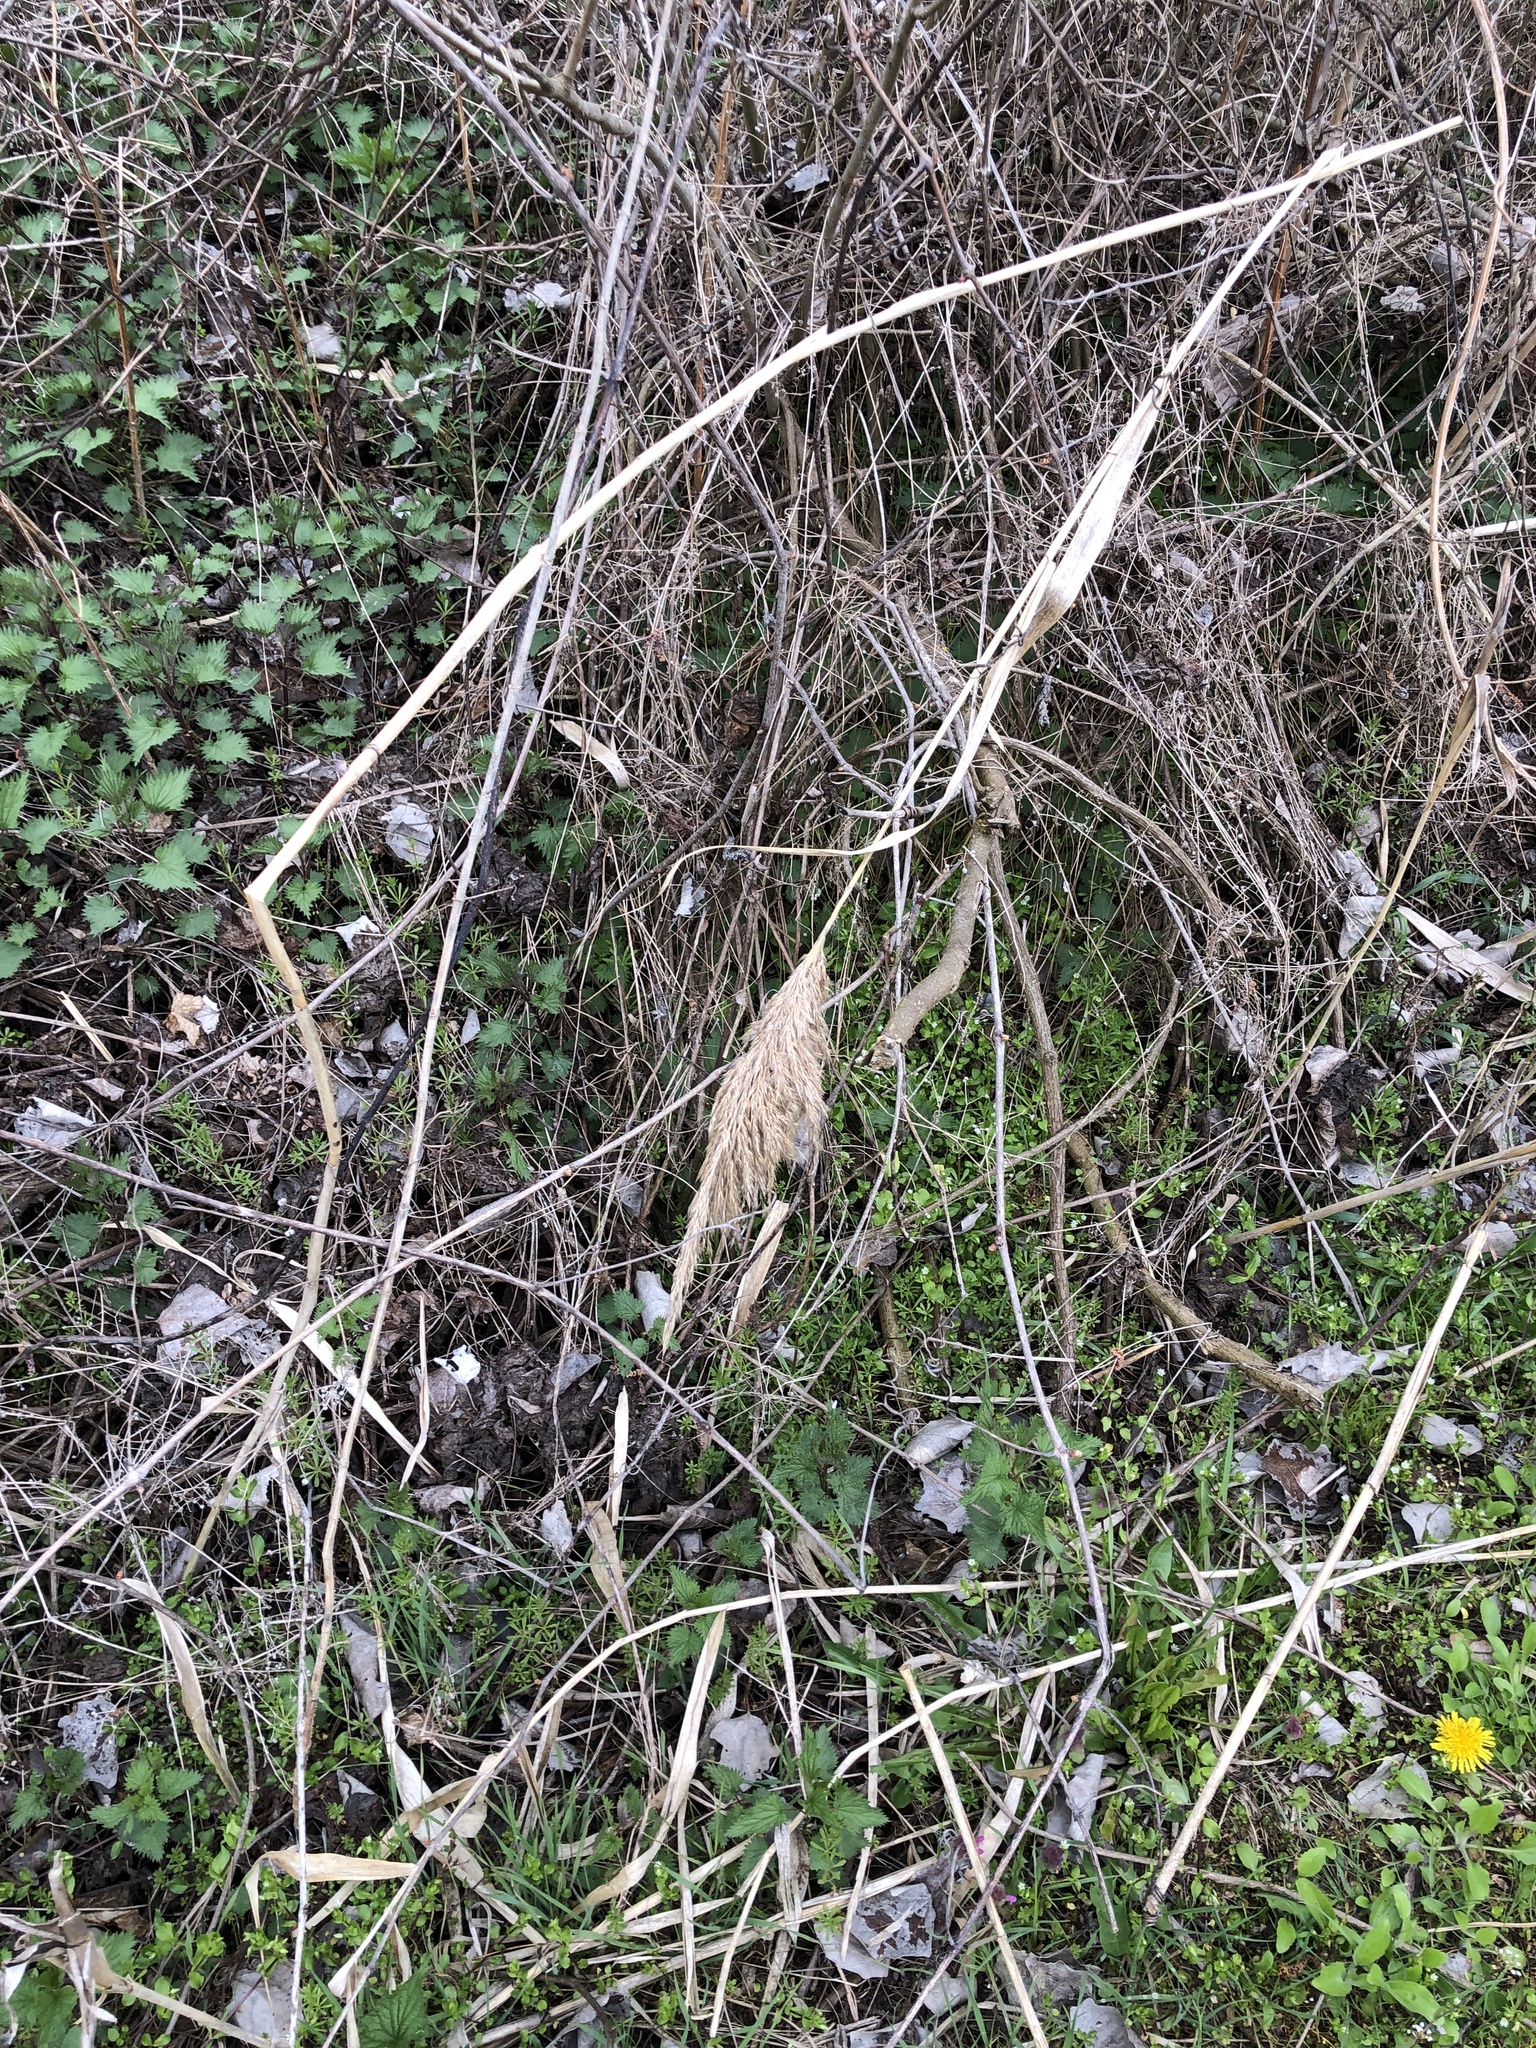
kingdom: Plantae
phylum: Tracheophyta
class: Liliopsida
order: Poales
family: Poaceae
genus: Phragmites
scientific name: Phragmites australis
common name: Common reed
